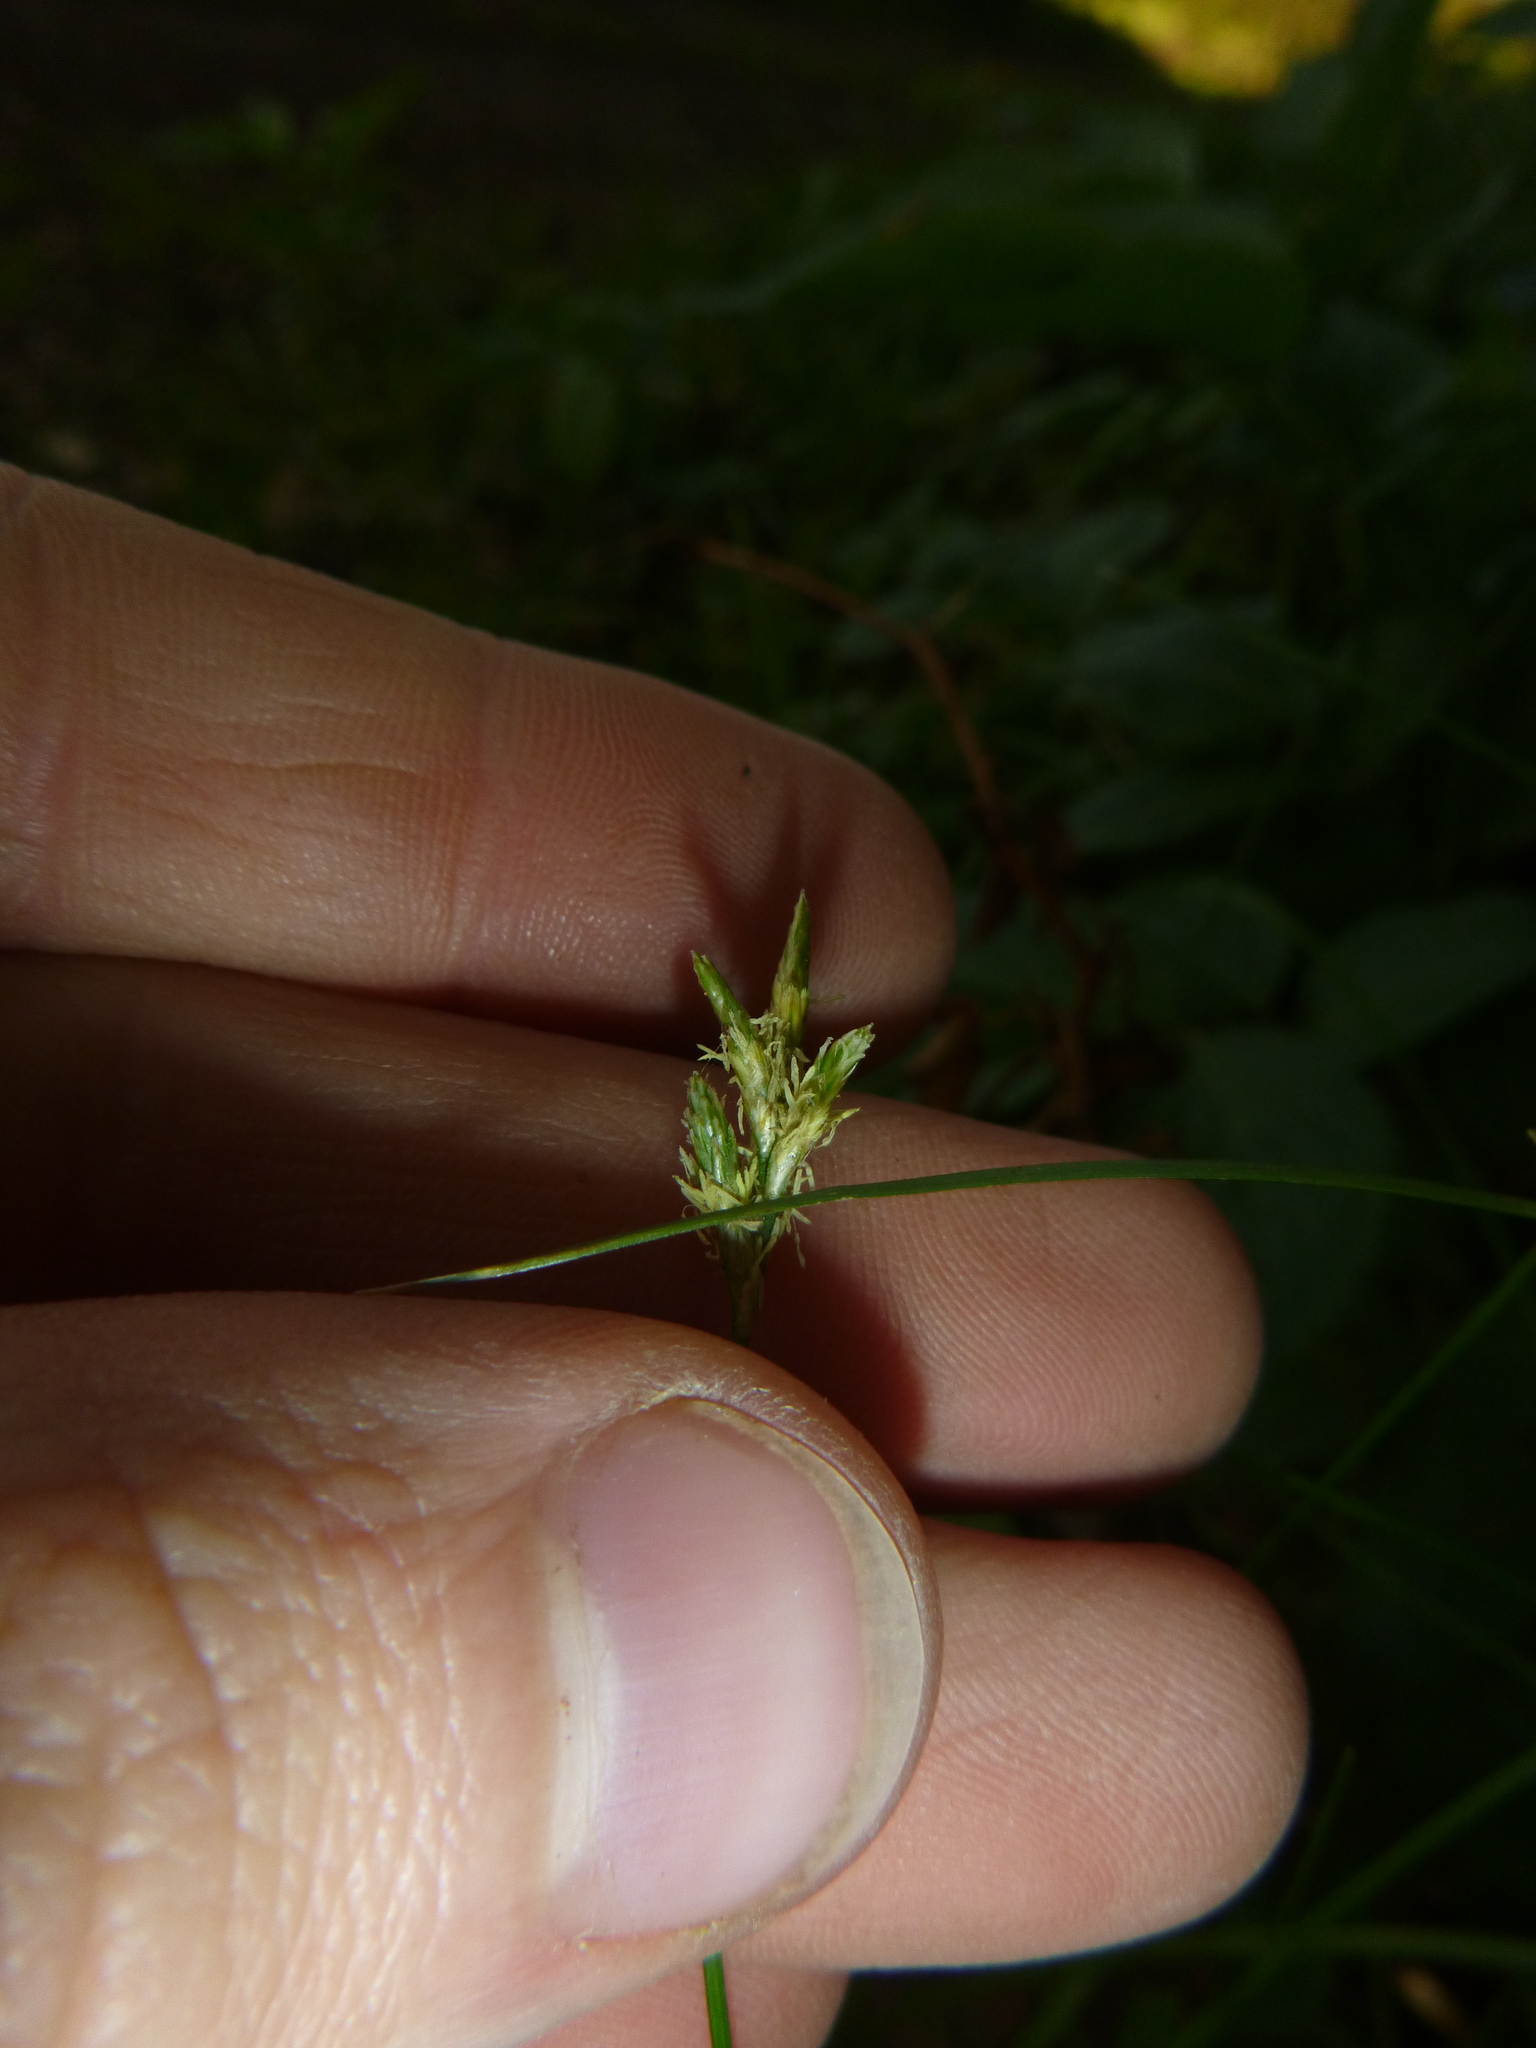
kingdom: Plantae
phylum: Tracheophyta
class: Liliopsida
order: Poales
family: Cyperaceae
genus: Carex
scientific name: Carex brizoides
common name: Quaking-grass sedge
